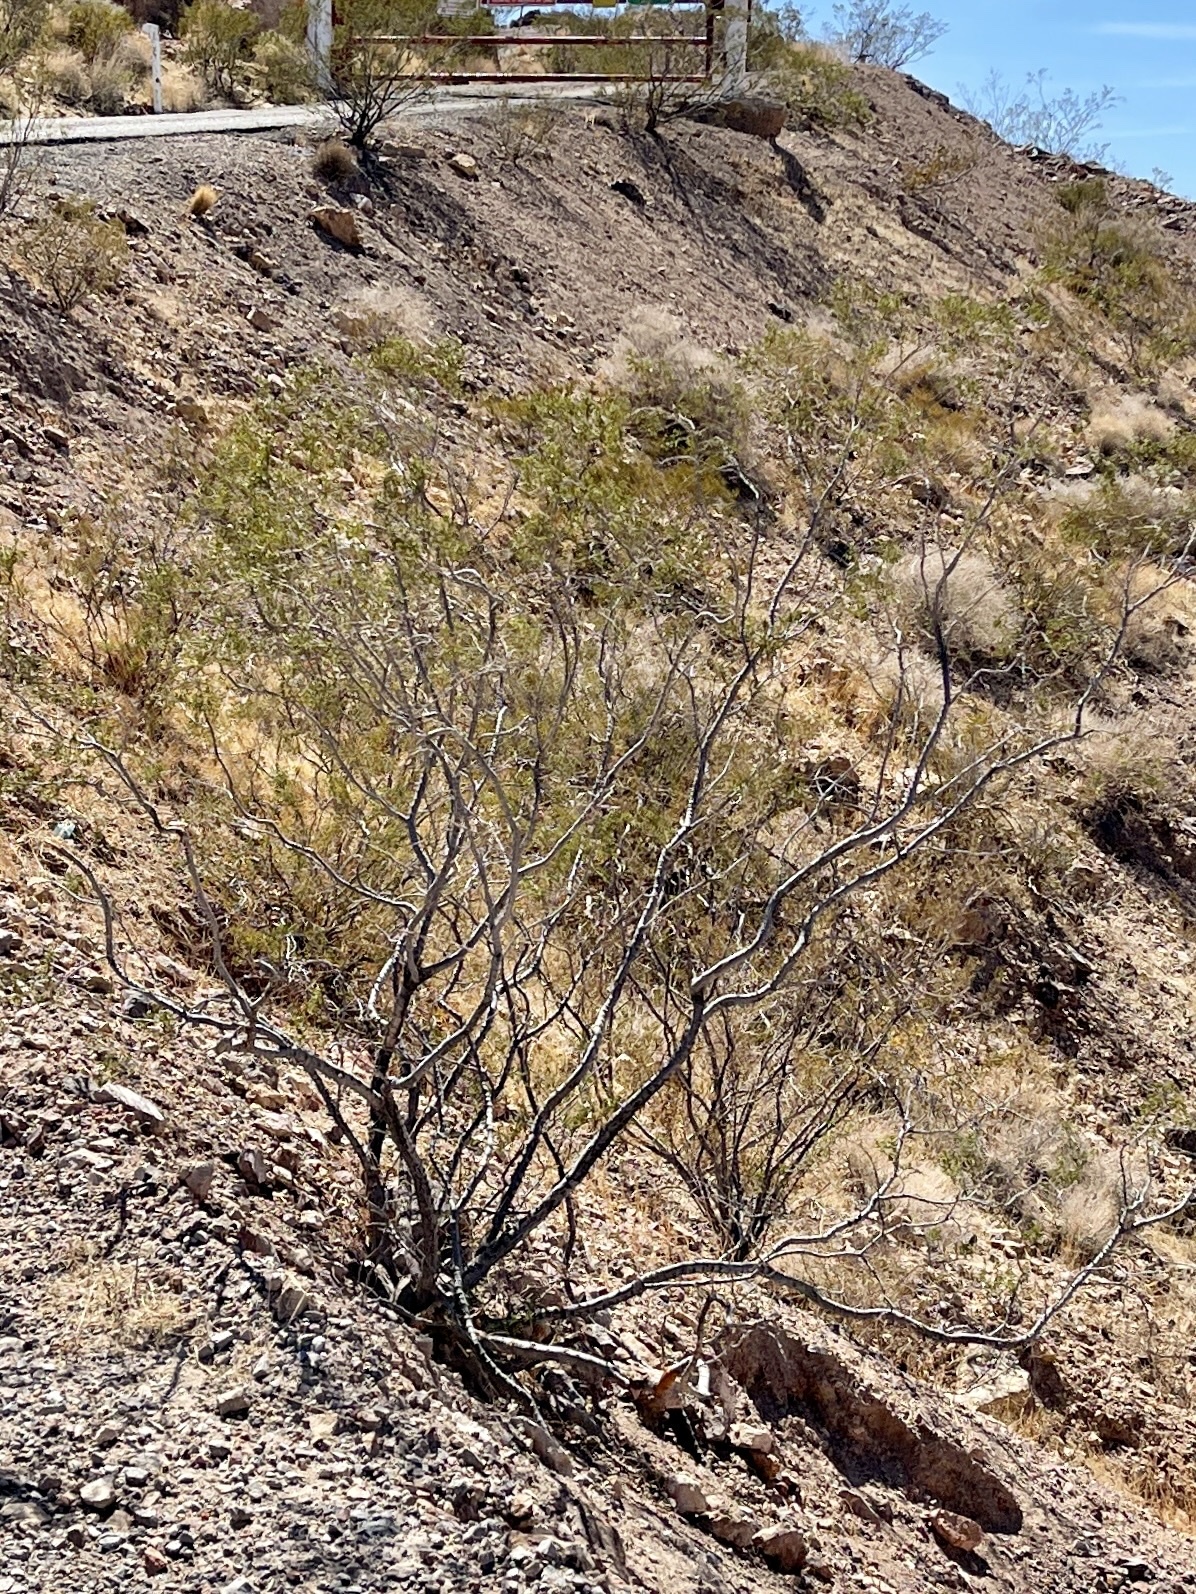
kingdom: Plantae
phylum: Tracheophyta
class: Magnoliopsida
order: Zygophyllales
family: Zygophyllaceae
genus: Larrea
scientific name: Larrea tridentata
